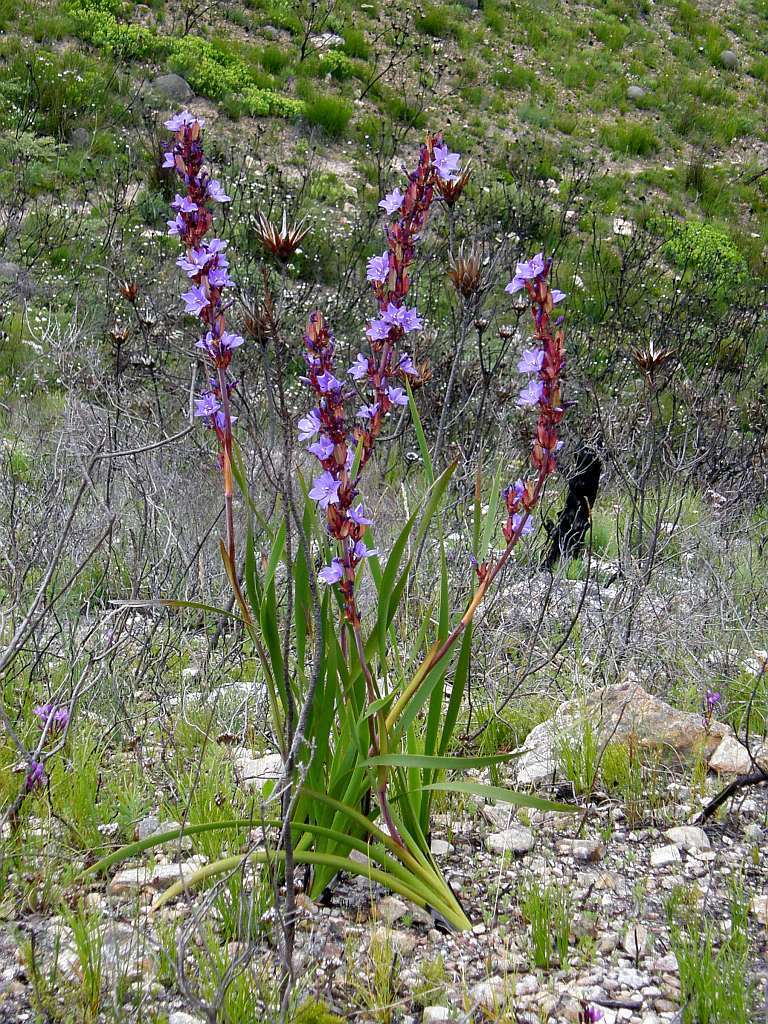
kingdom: Plantae
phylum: Tracheophyta
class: Liliopsida
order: Asparagales
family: Iridaceae
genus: Aristea
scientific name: Aristea capitata
